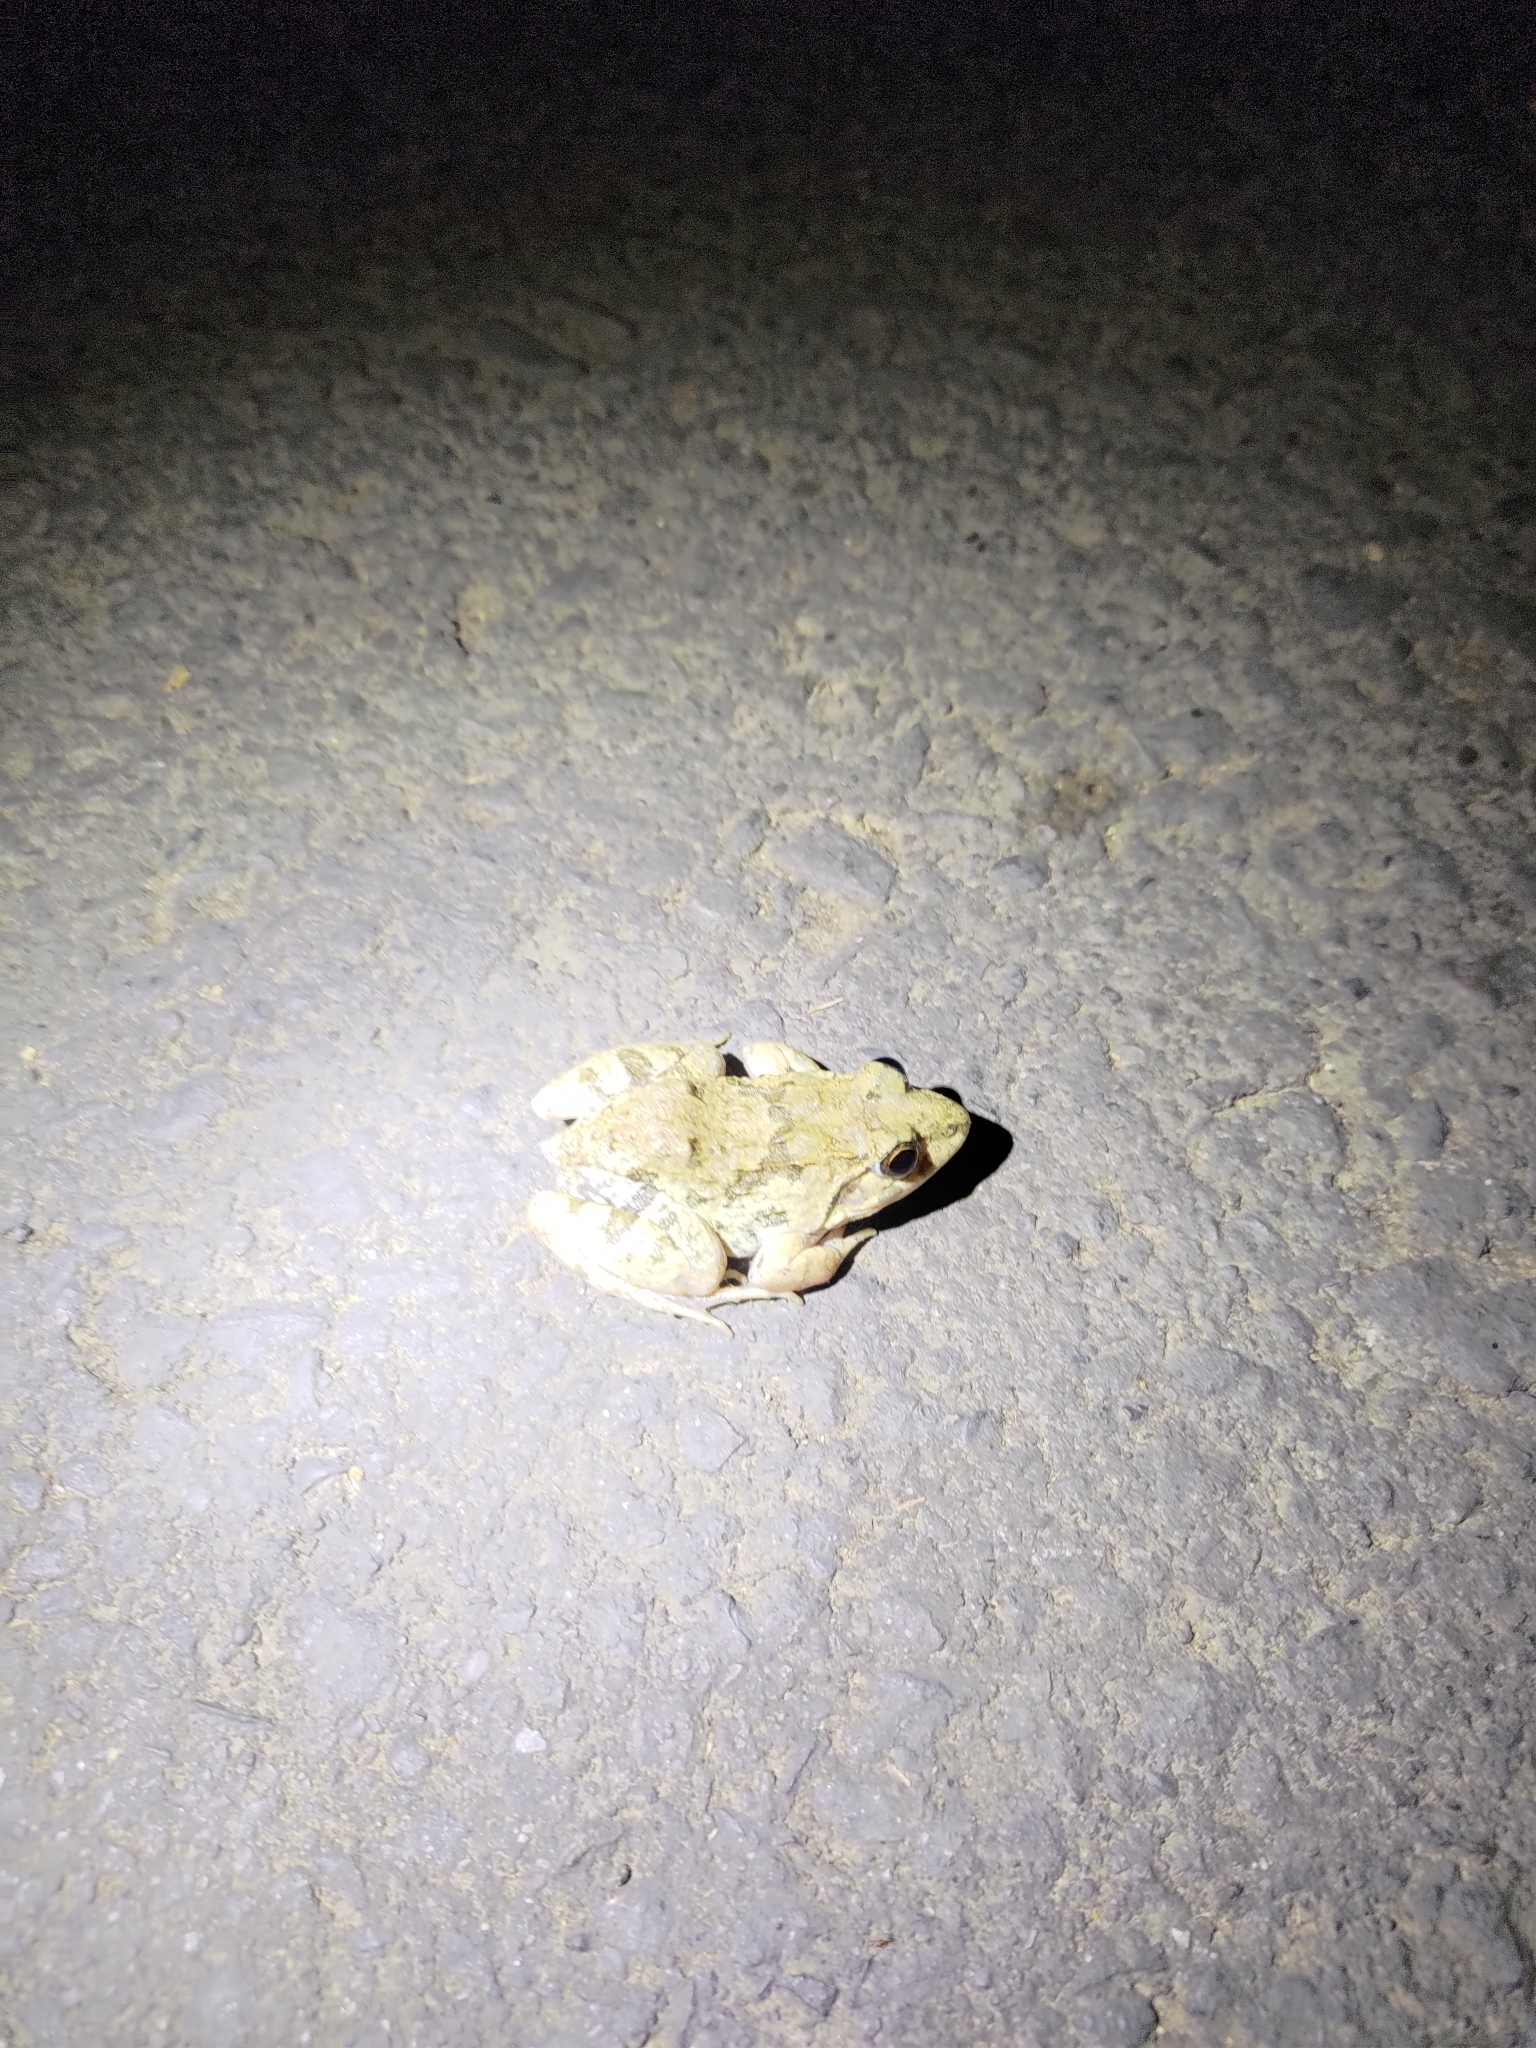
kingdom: Animalia
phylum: Chordata
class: Amphibia
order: Anura
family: Dicroglossidae
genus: Fejervarya
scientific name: Fejervarya limnocharis
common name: Asian grass frog/common pond frog/field frog/grass frog/indian rice frog
